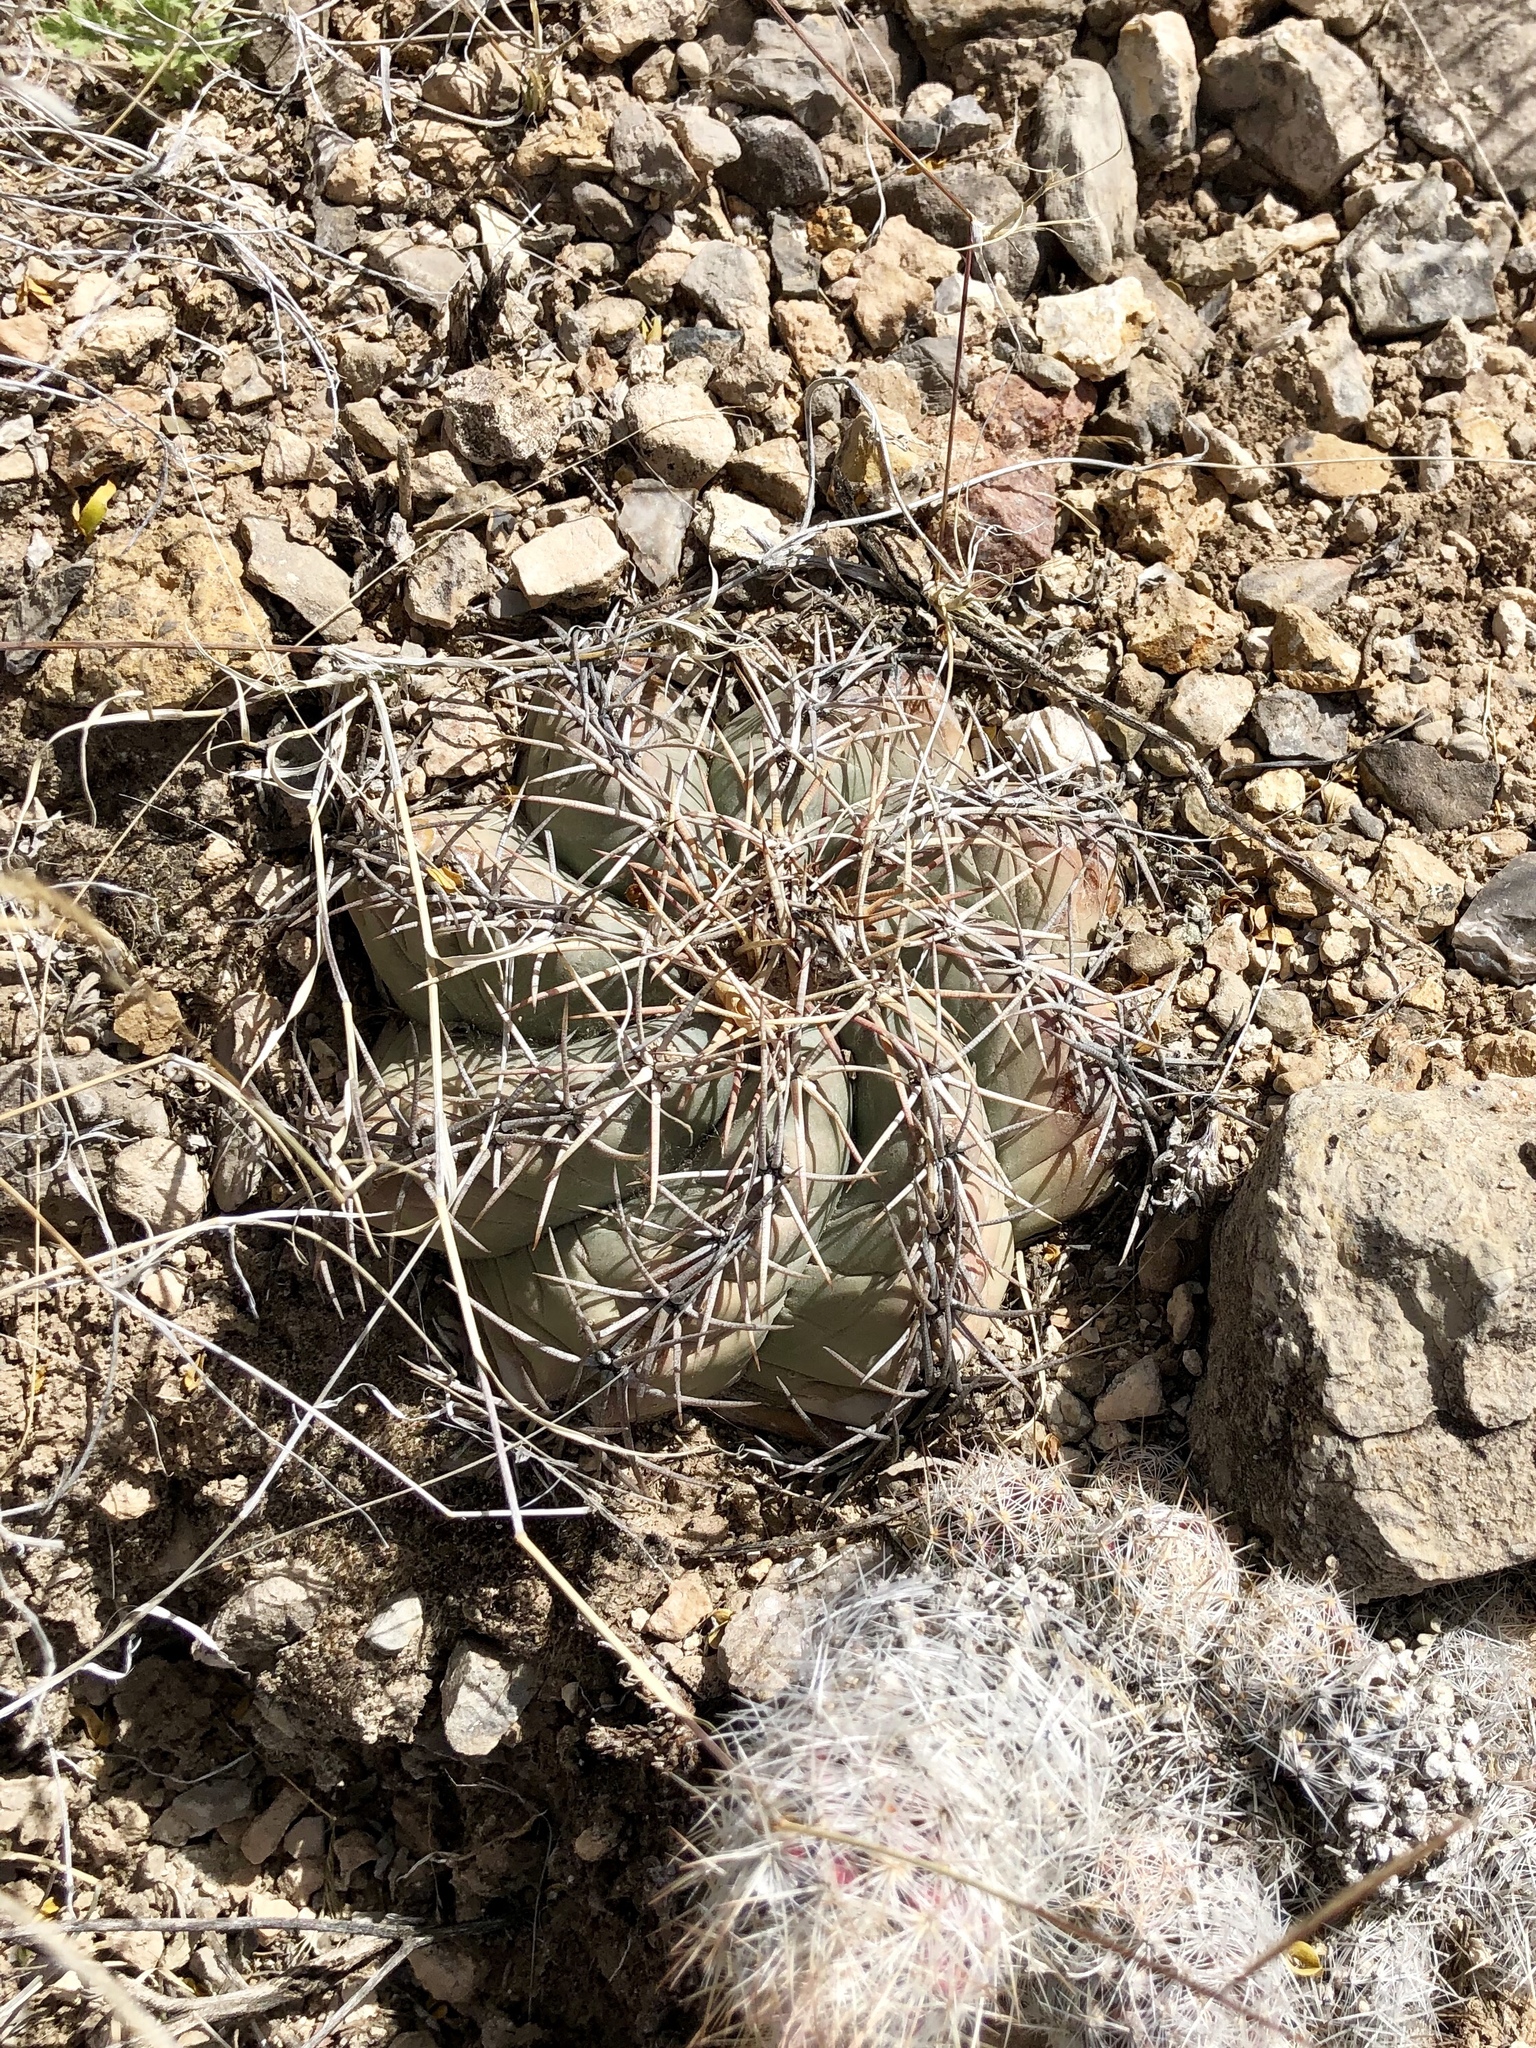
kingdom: Plantae
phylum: Tracheophyta
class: Magnoliopsida
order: Caryophyllales
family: Cactaceae
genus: Echinocactus
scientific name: Echinocactus horizonthalonius
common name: Devilshead
